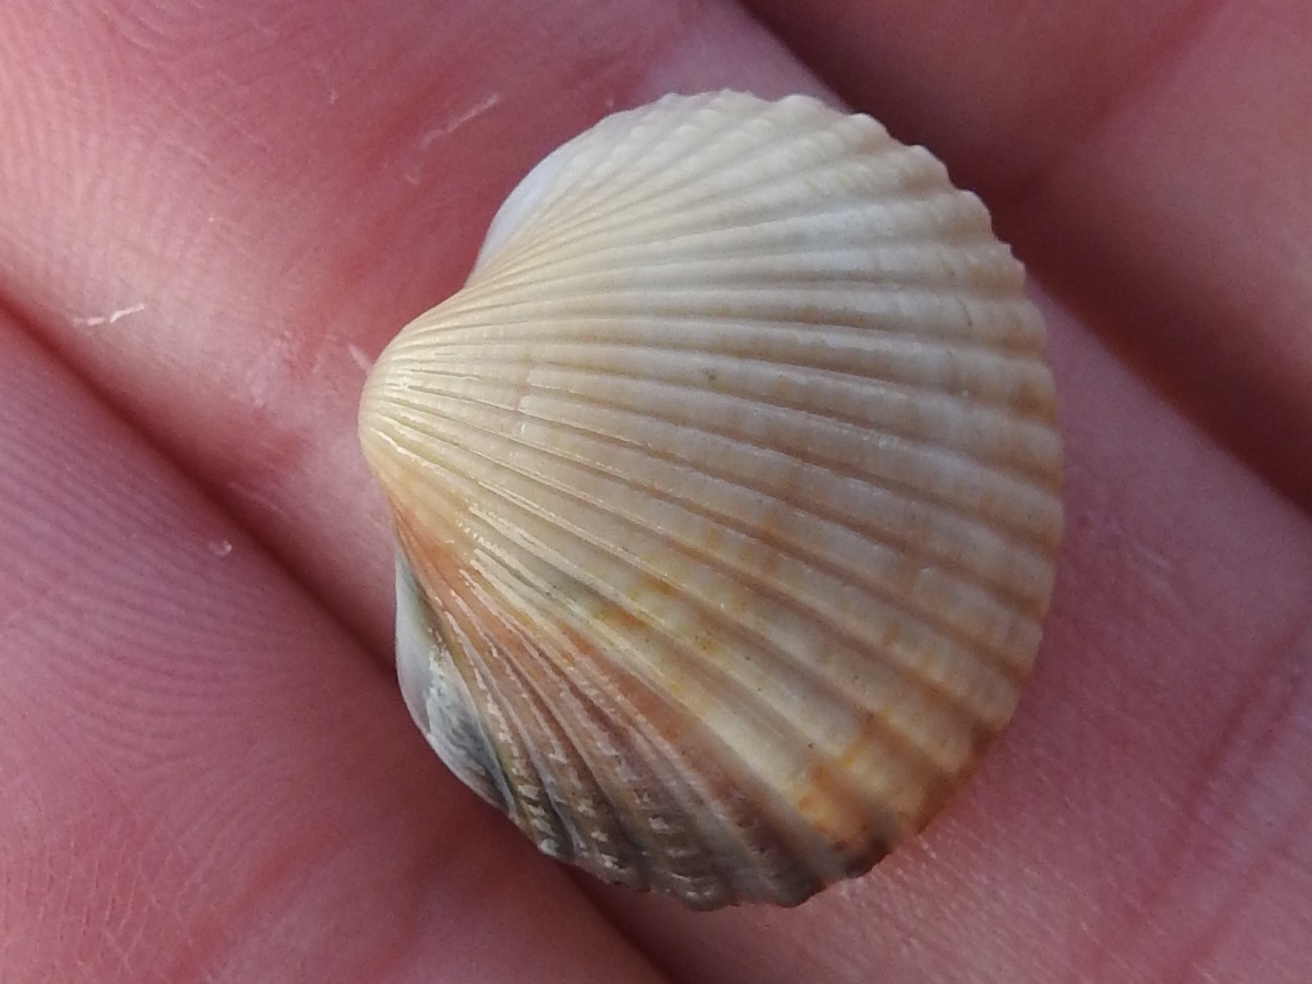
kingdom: Animalia
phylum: Mollusca
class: Bivalvia
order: Cardiida
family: Cardiidae
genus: Cerastoderma
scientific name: Cerastoderma edule
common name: Common cockle
